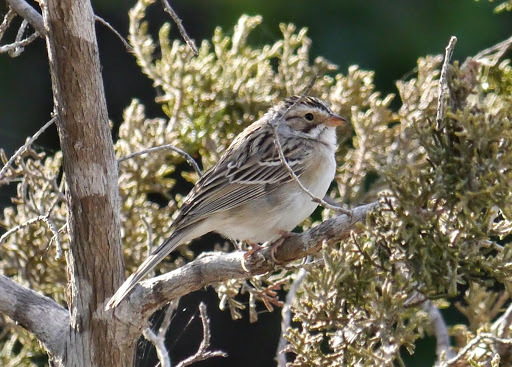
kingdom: Animalia
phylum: Chordata
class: Aves
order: Passeriformes
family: Passerellidae
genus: Spizella
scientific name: Spizella pallida
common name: Clay-colored sparrow
